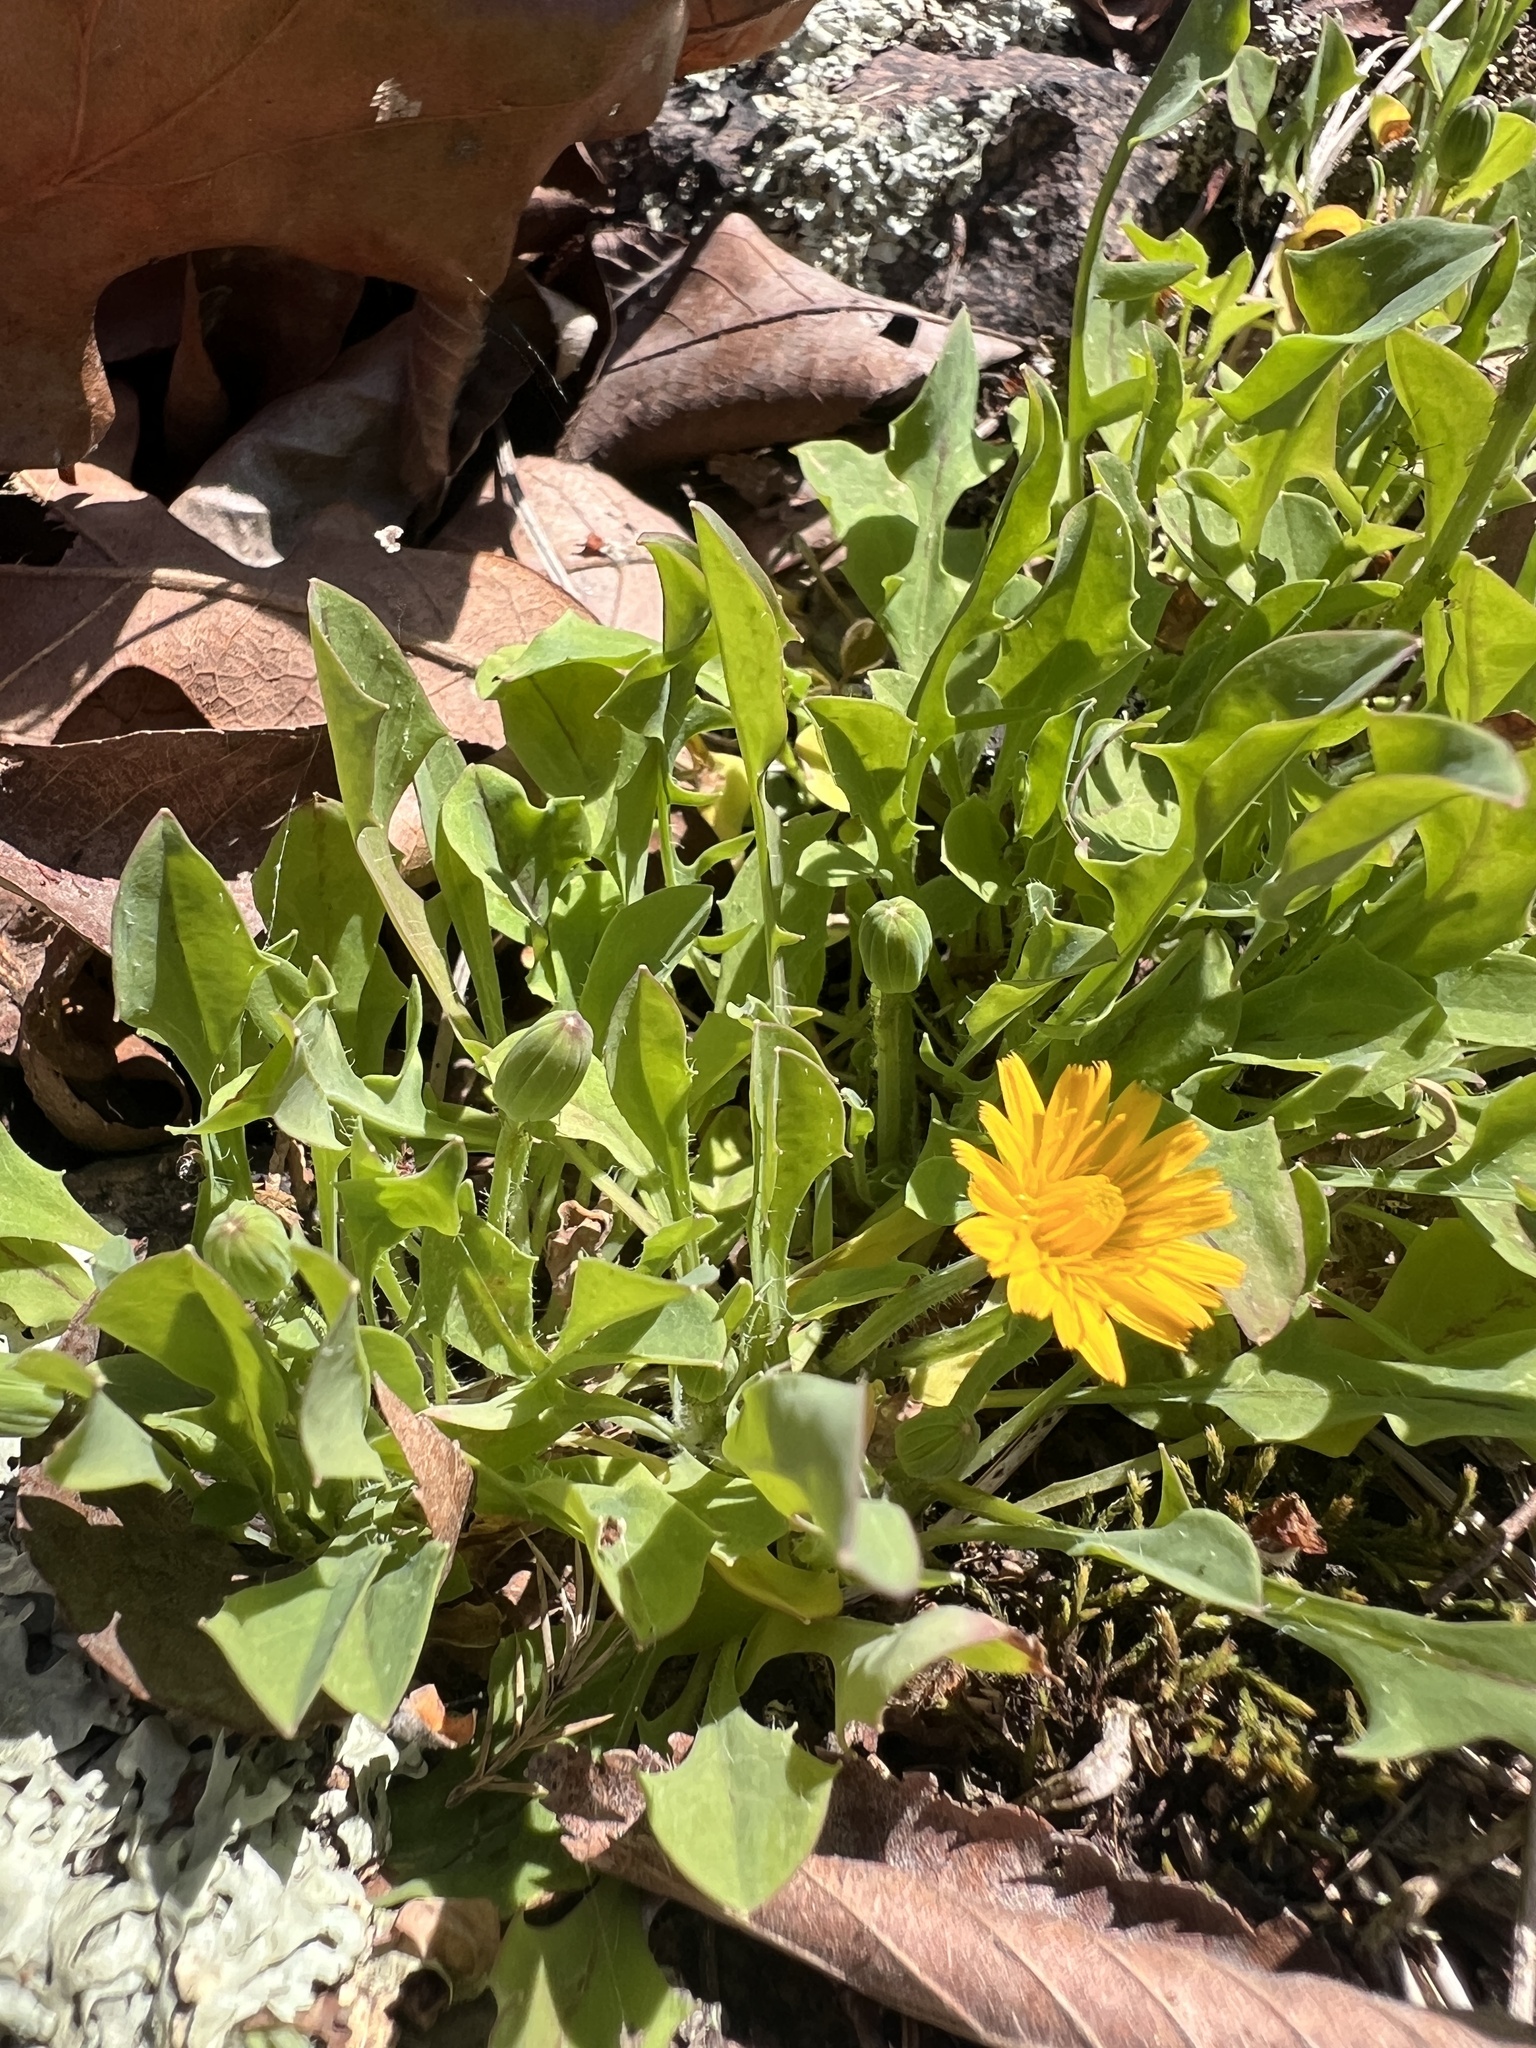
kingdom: Plantae
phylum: Tracheophyta
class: Magnoliopsida
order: Asterales
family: Asteraceae
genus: Krigia
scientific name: Krigia virginica
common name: Virginia dwarf-dandelion
